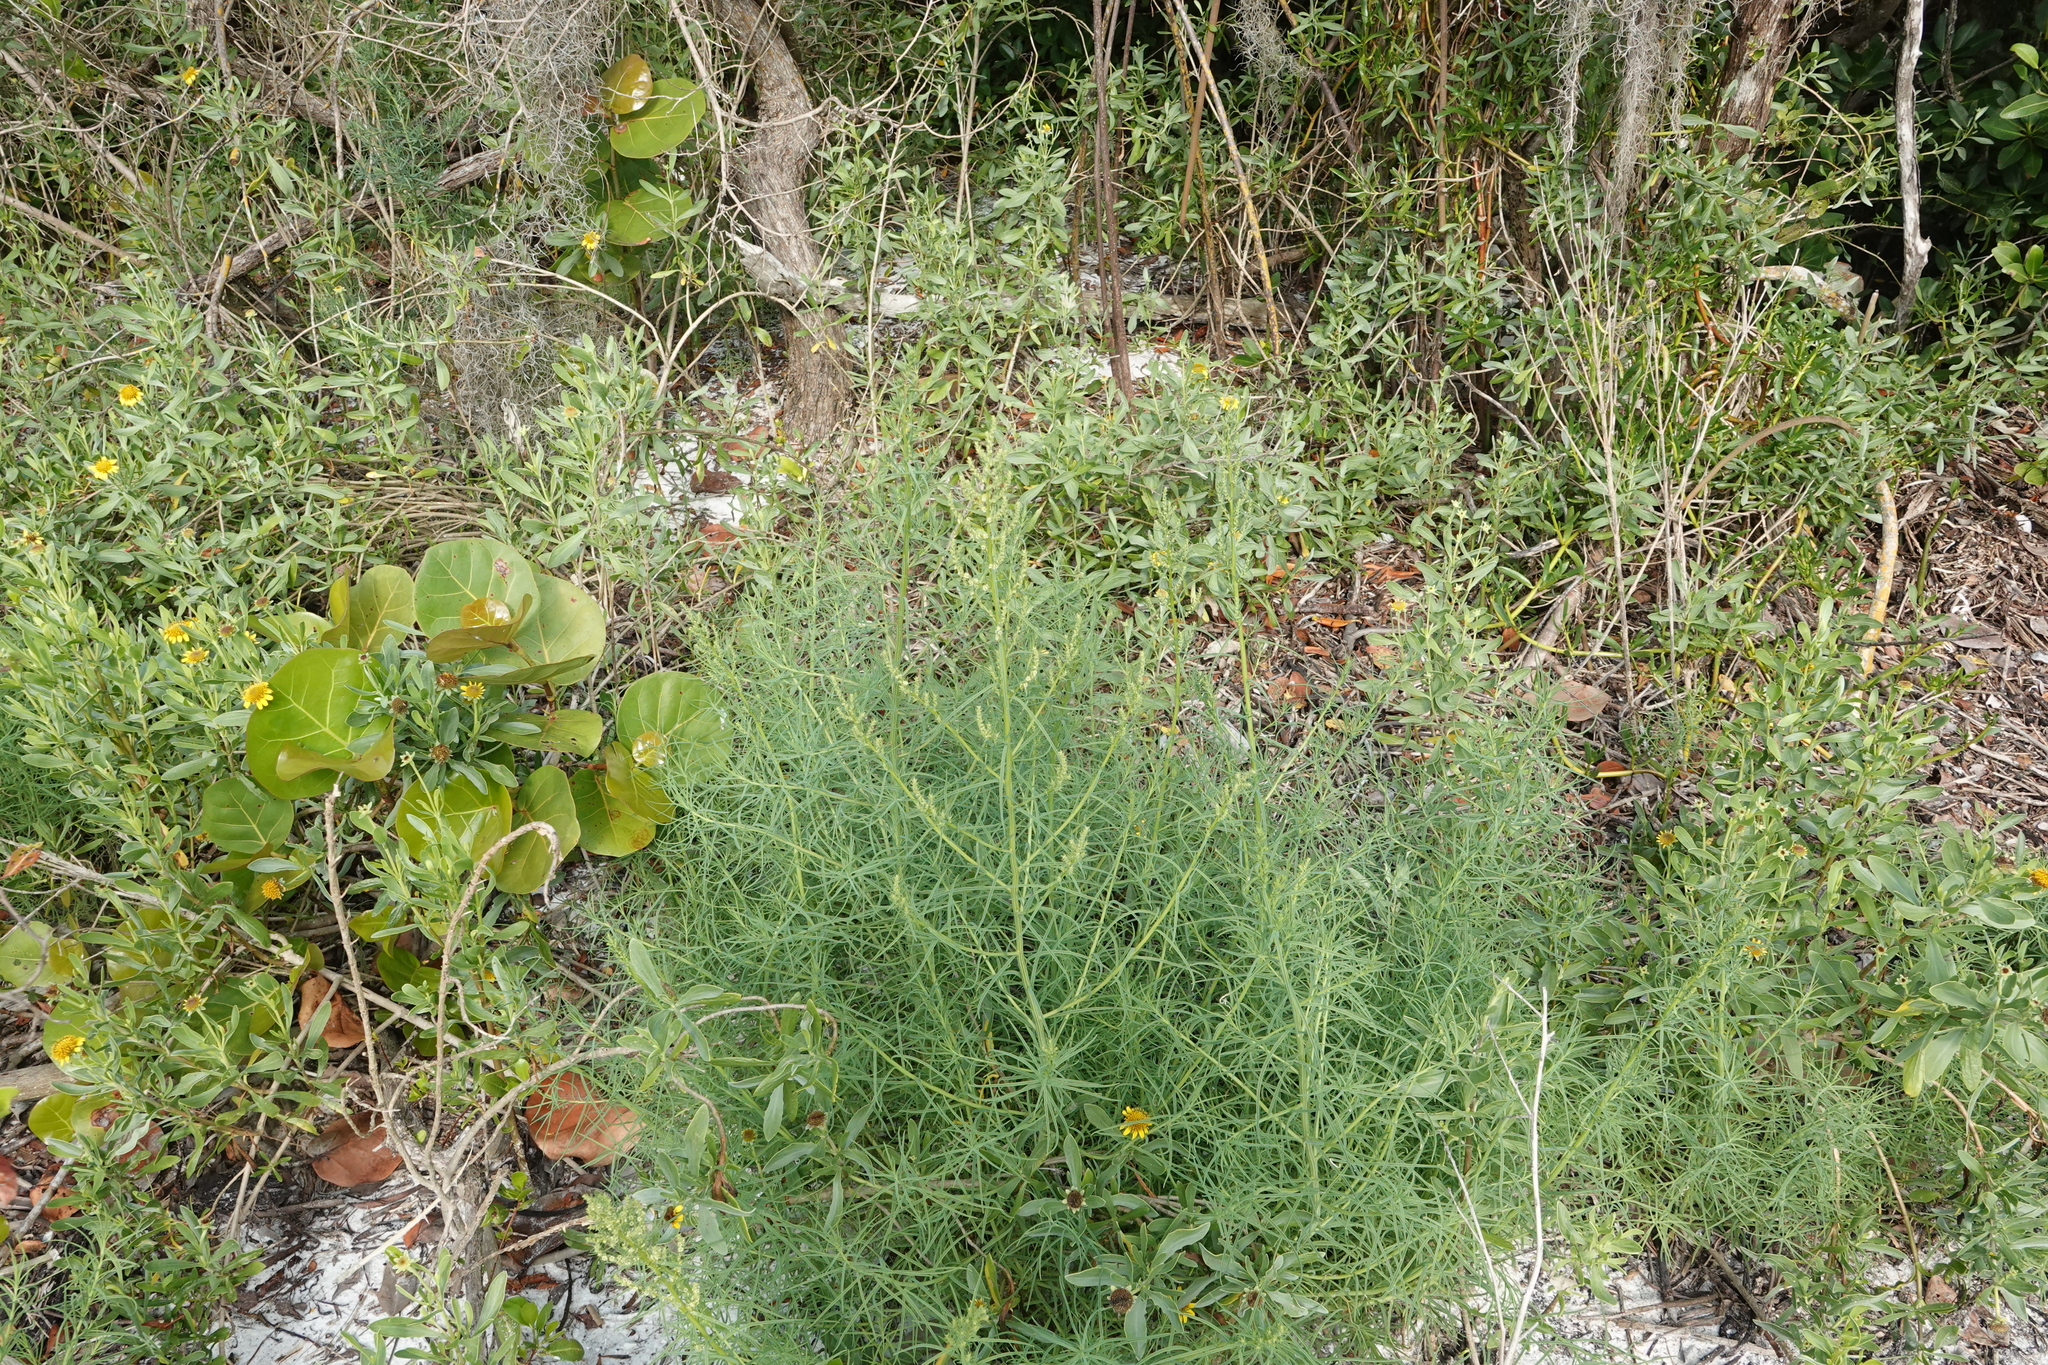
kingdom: Plantae
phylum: Tracheophyta
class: Magnoliopsida
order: Caryophyllales
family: Amaranthaceae
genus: Suaeda
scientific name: Suaeda linearis
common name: Annual seepweed
